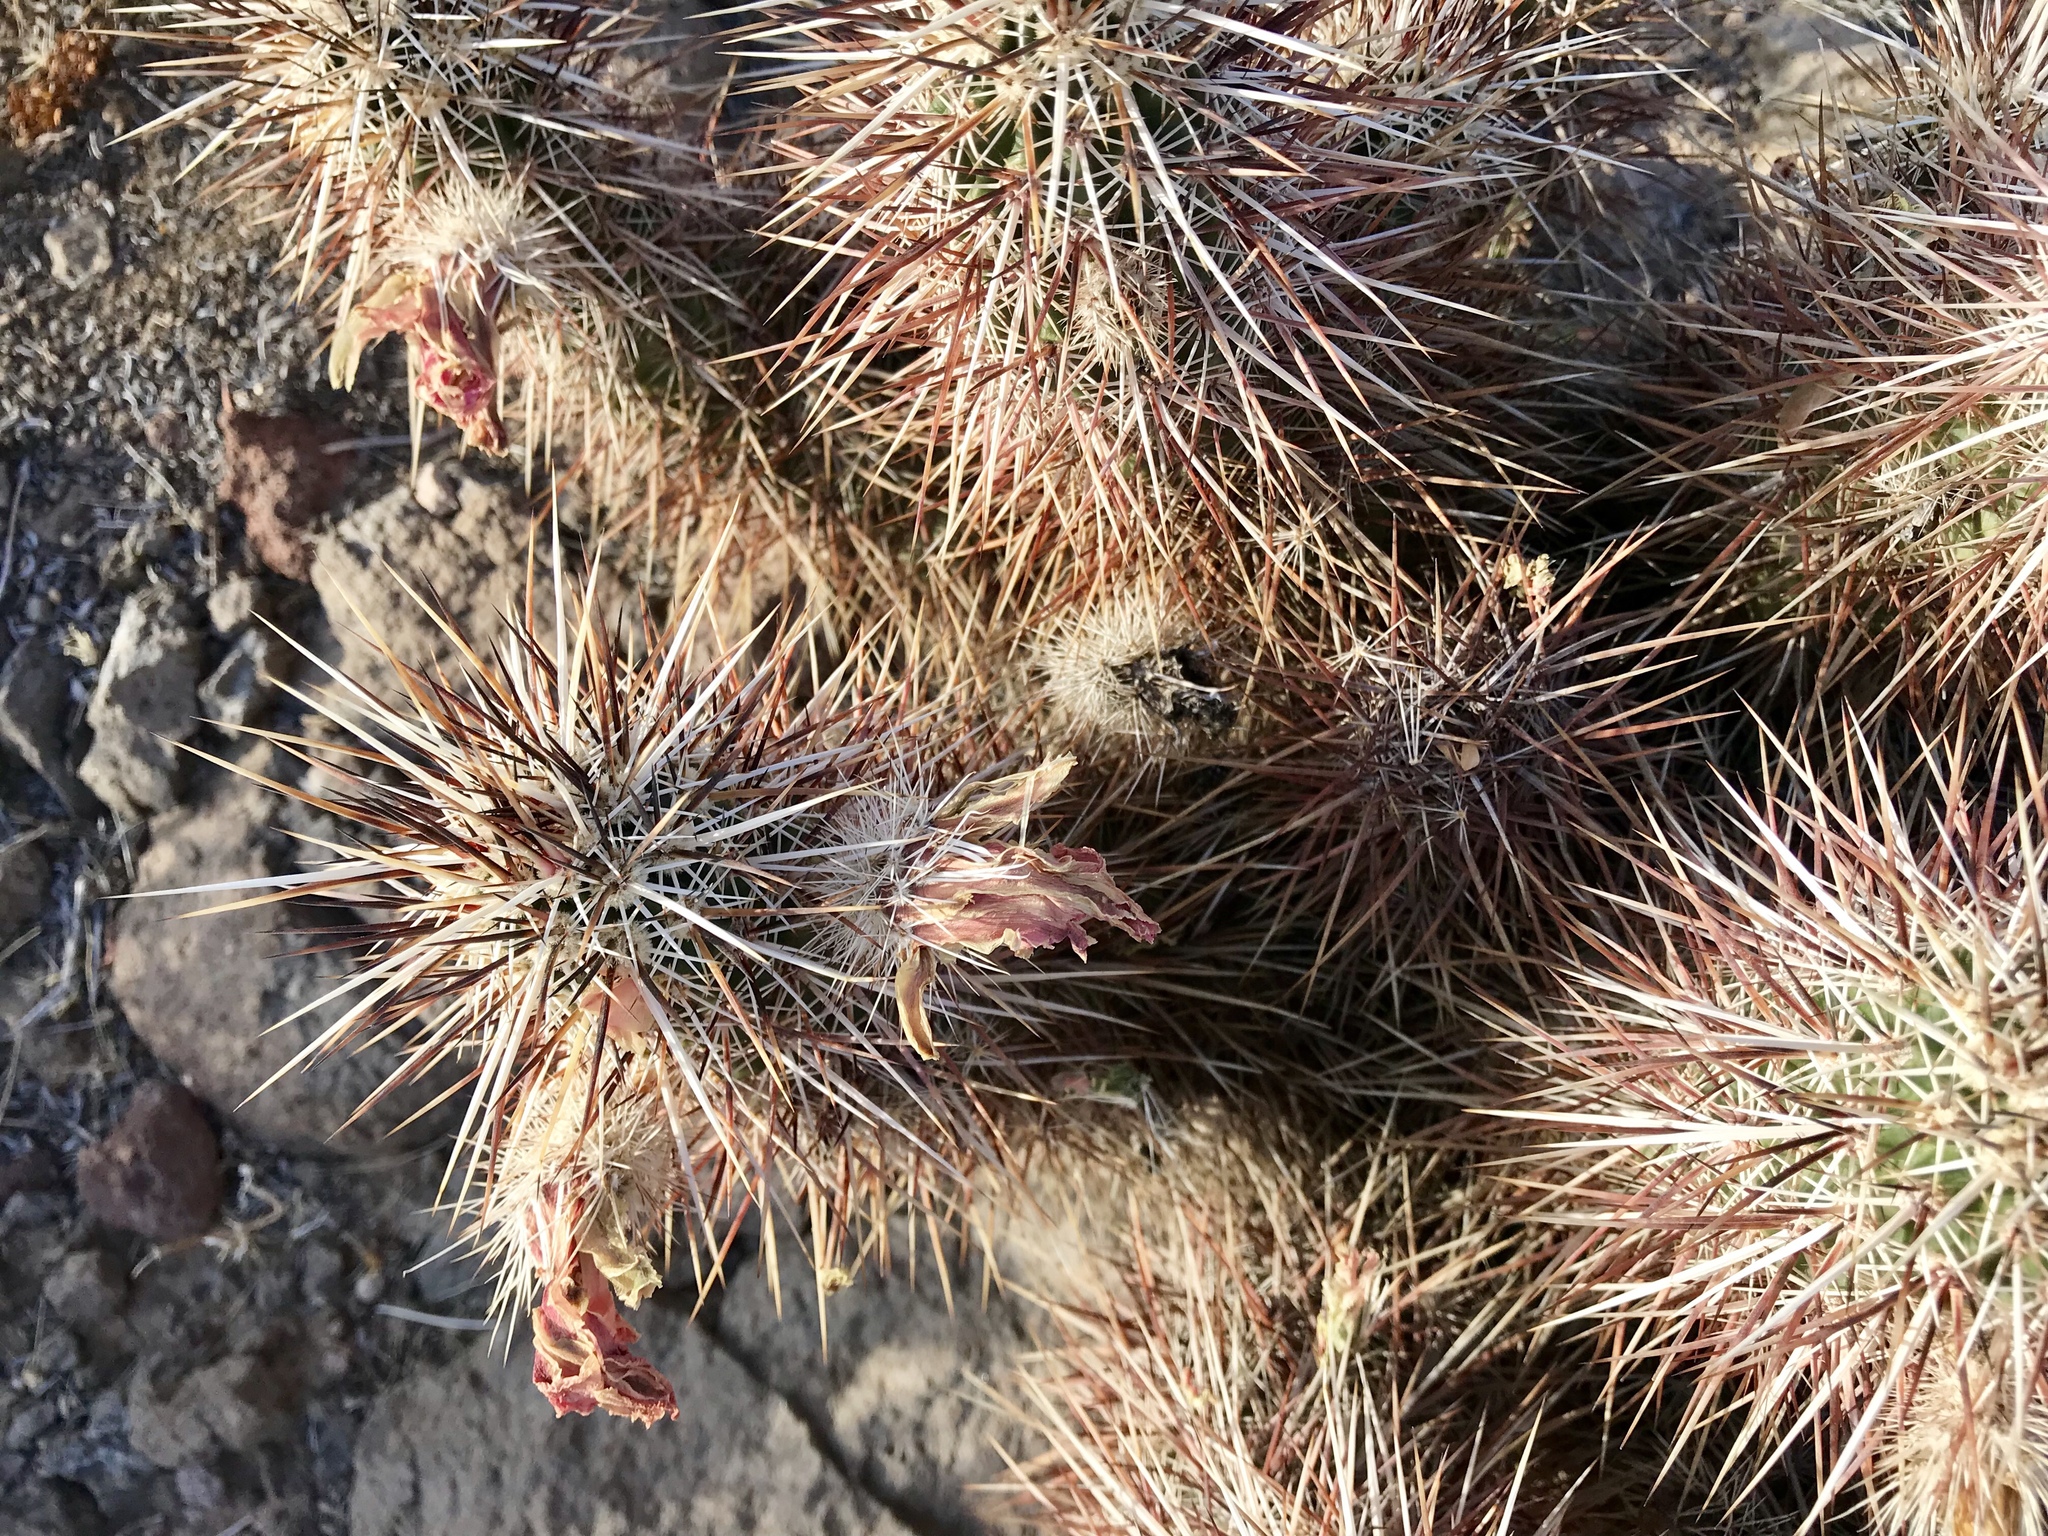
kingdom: Plantae
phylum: Tracheophyta
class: Magnoliopsida
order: Caryophyllales
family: Cactaceae
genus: Echinocereus
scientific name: Echinocereus engelmannii
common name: Engelmann's hedgehog cactus
